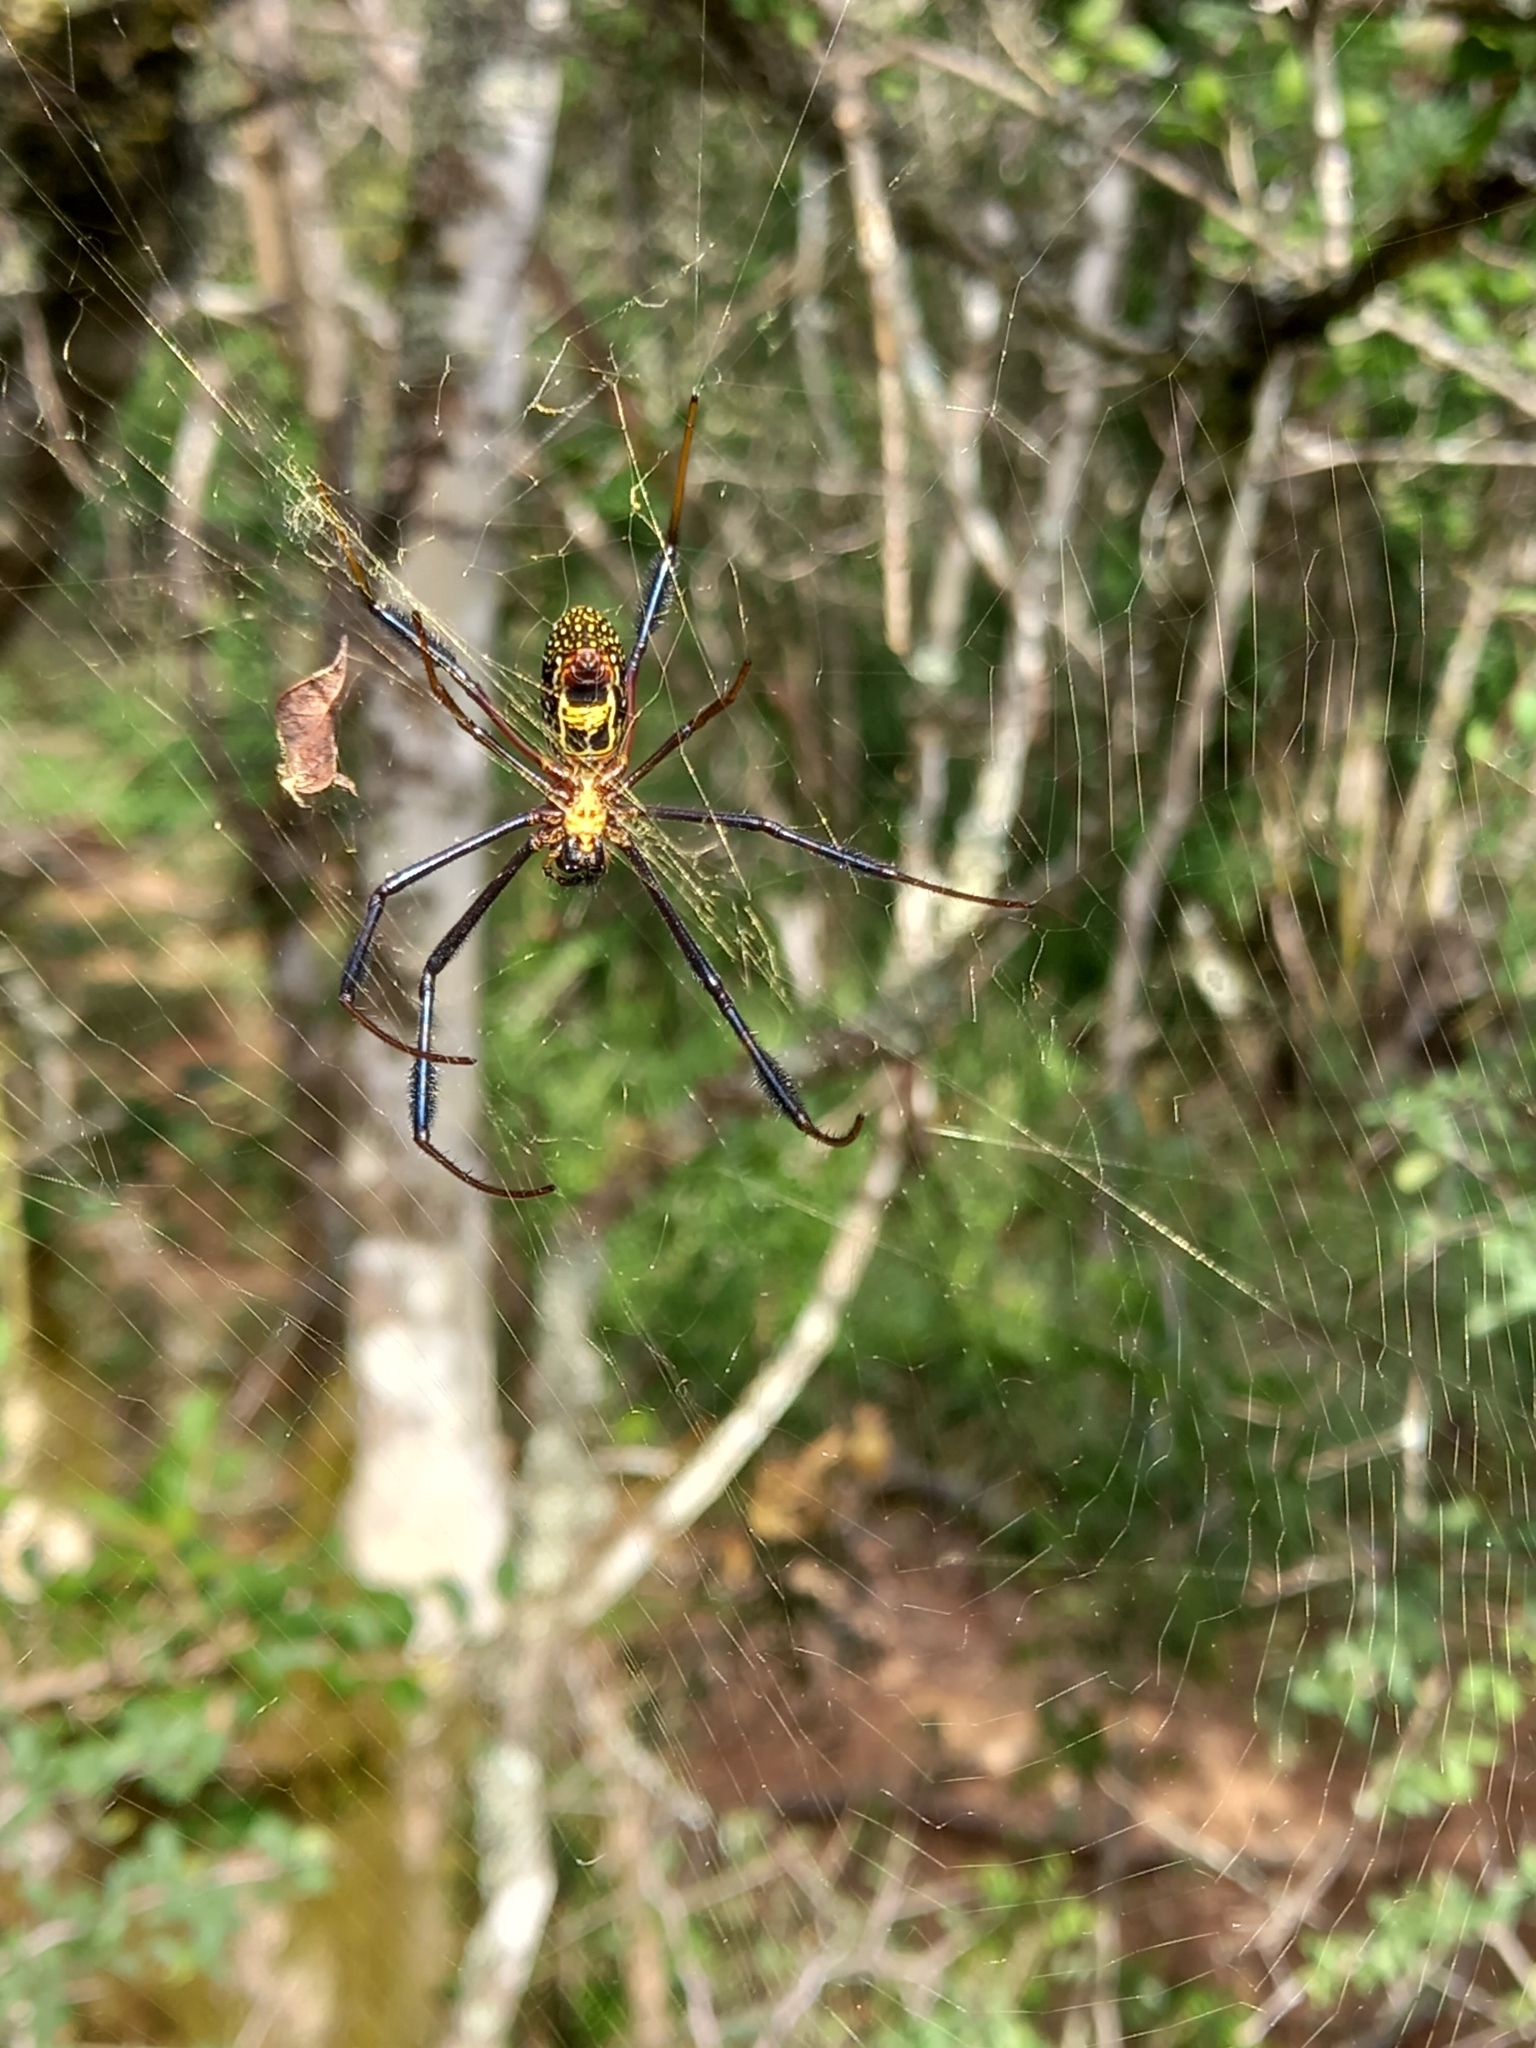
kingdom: Animalia
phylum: Arthropoda
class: Arachnida
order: Araneae
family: Araneidae
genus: Trichonephila
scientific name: Trichonephila fenestrata
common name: Hairy golden orb weaver
